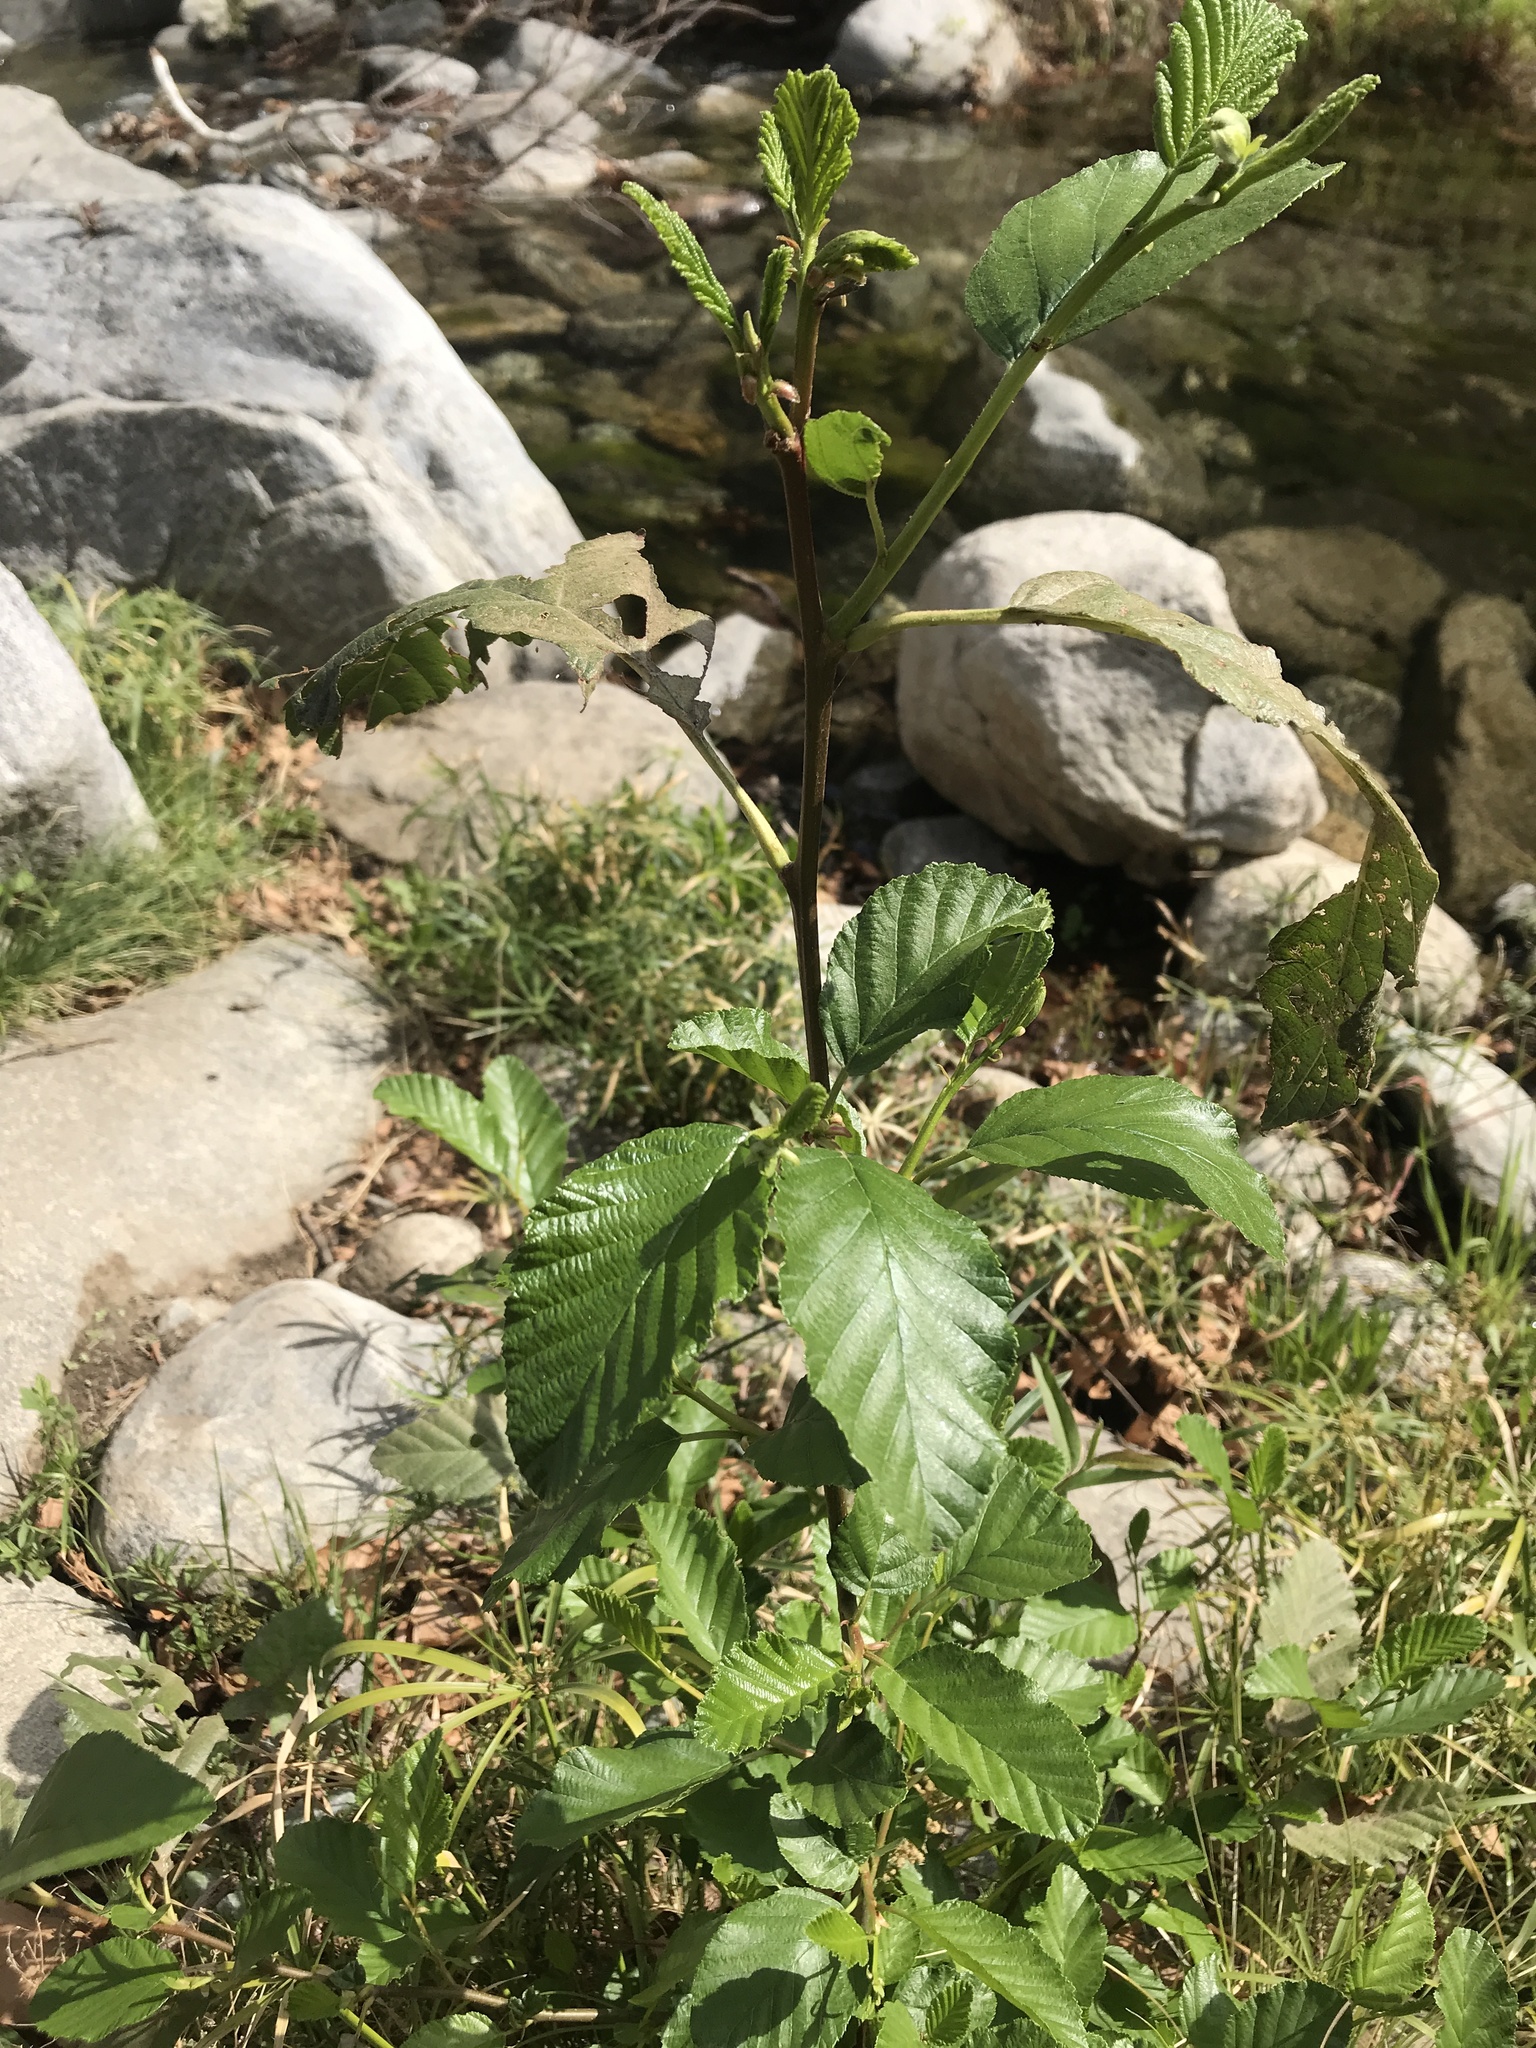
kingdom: Plantae
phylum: Tracheophyta
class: Magnoliopsida
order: Fagales
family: Betulaceae
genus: Alnus
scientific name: Alnus rhombifolia
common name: California alder
